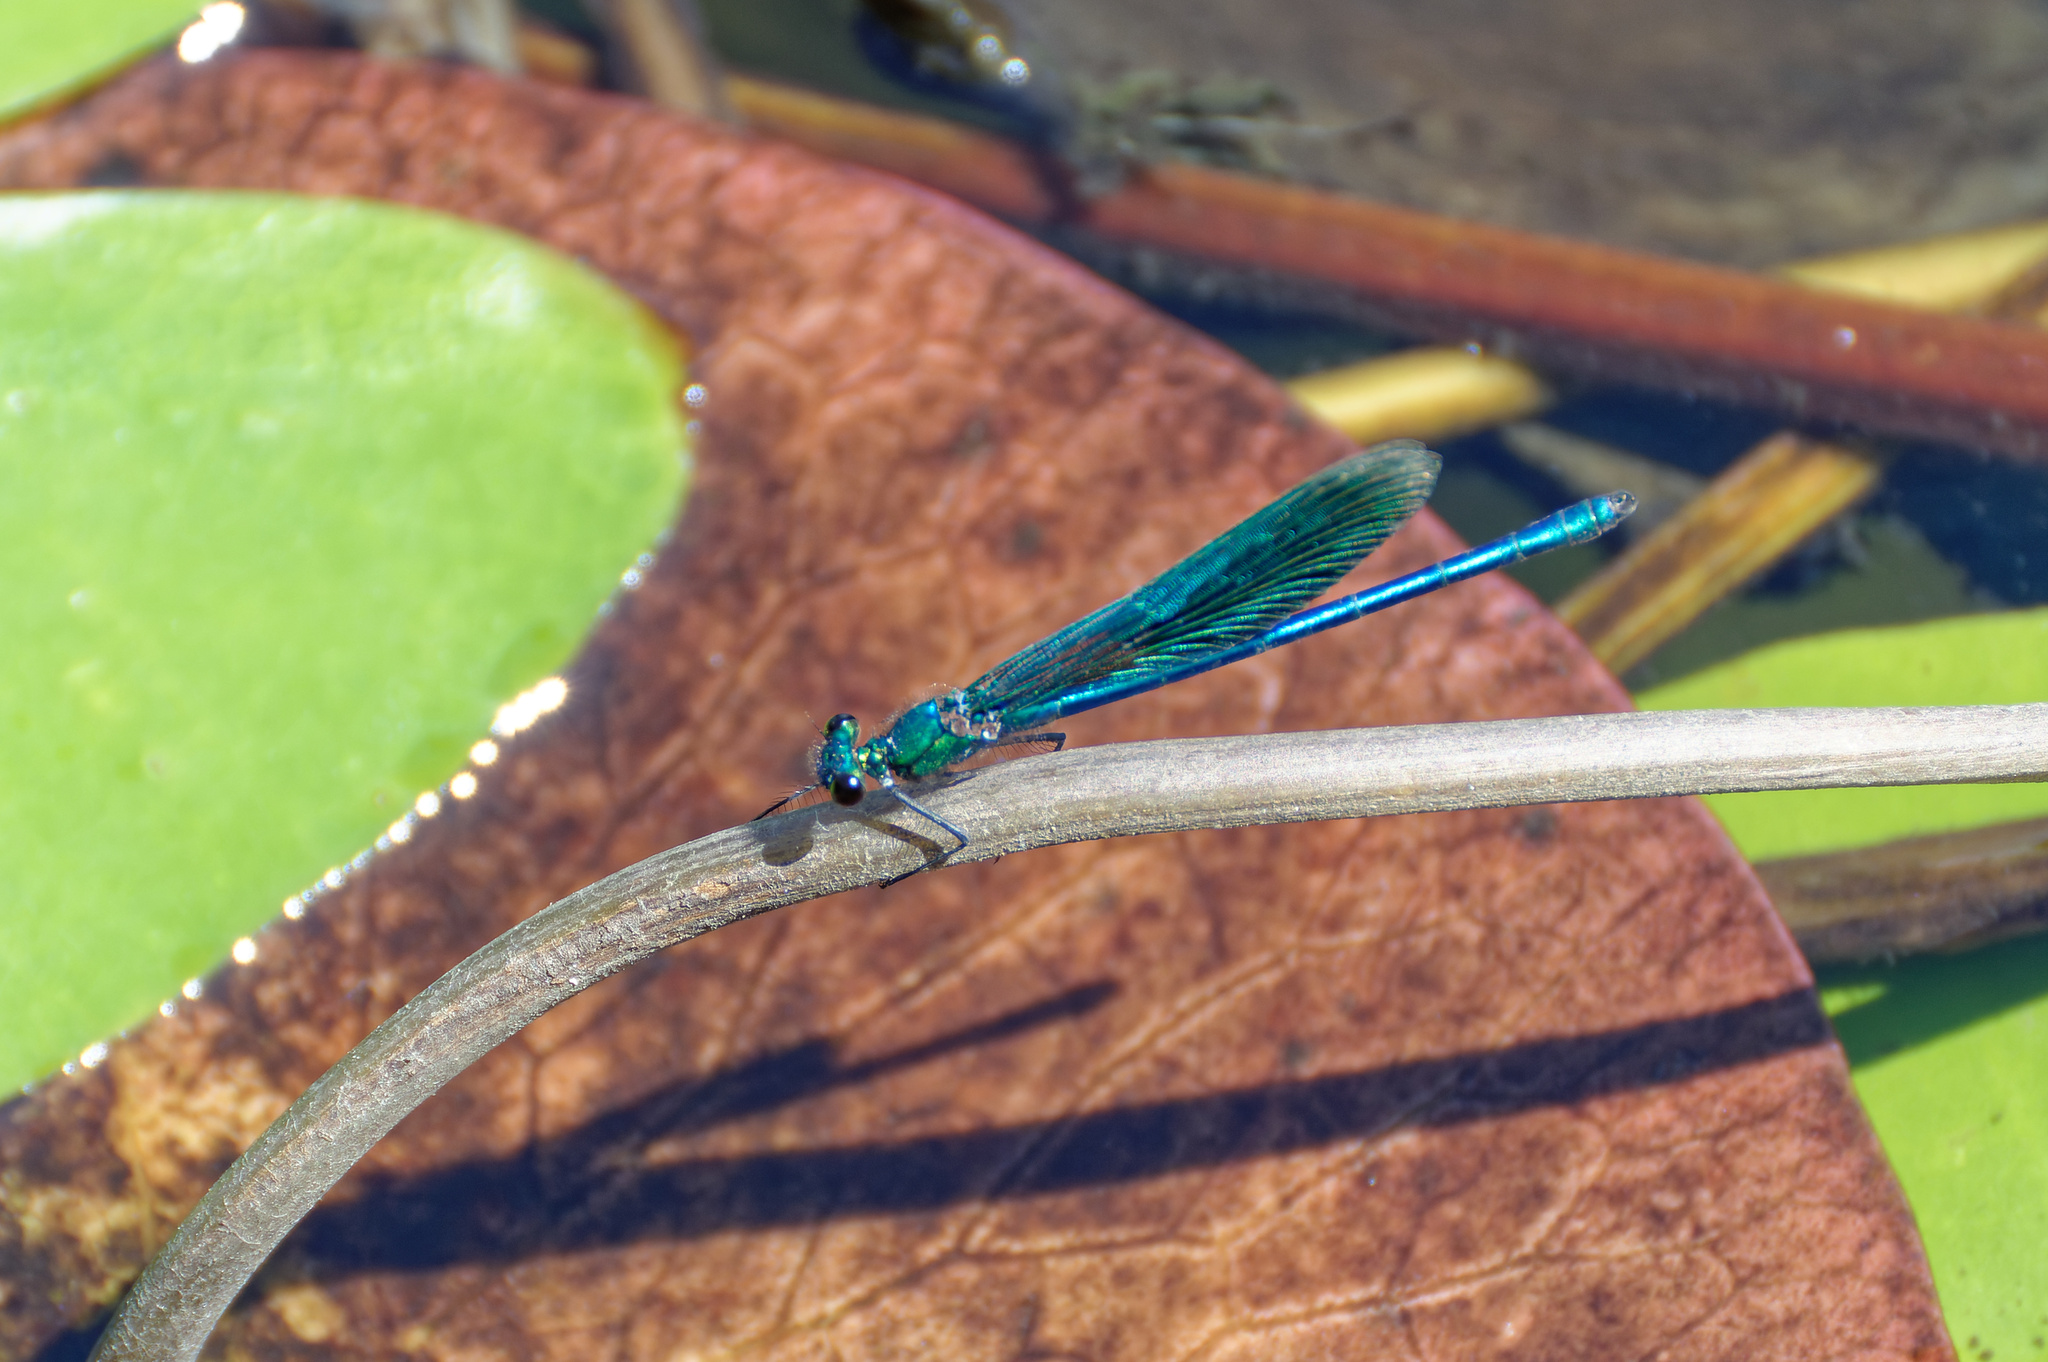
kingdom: Animalia
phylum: Arthropoda
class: Insecta
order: Odonata
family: Calopterygidae
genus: Calopteryx
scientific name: Calopteryx virgo
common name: Beautiful demoiselle
